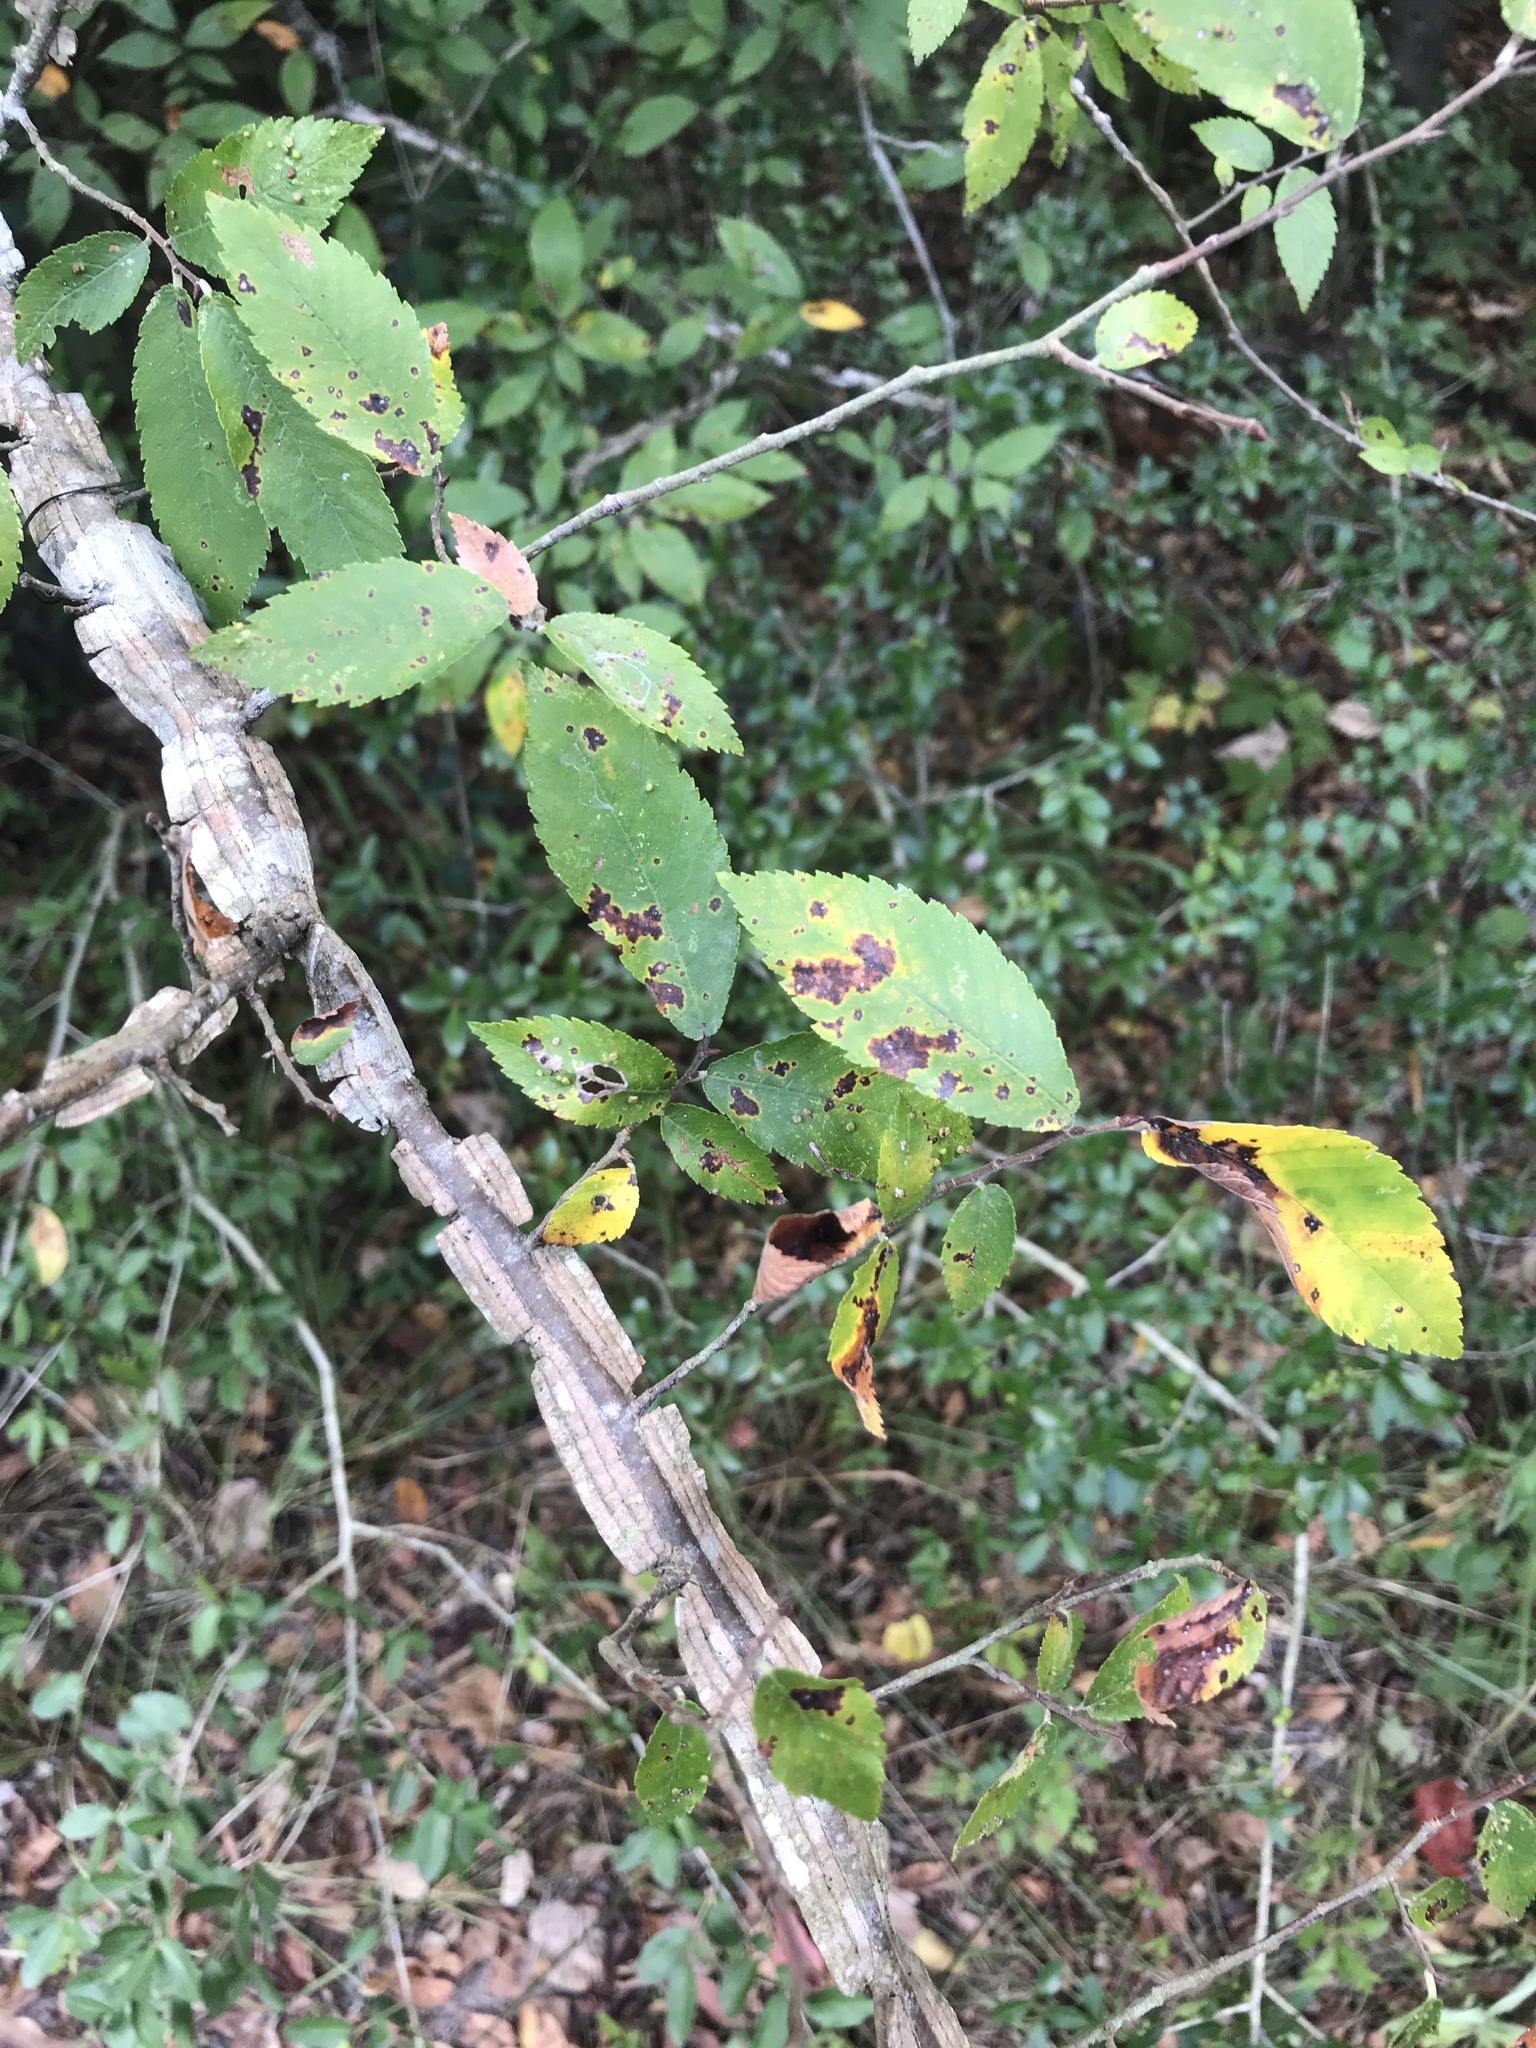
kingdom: Plantae
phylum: Tracheophyta
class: Magnoliopsida
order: Rosales
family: Ulmaceae
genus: Ulmus
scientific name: Ulmus alata
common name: Winged elm
